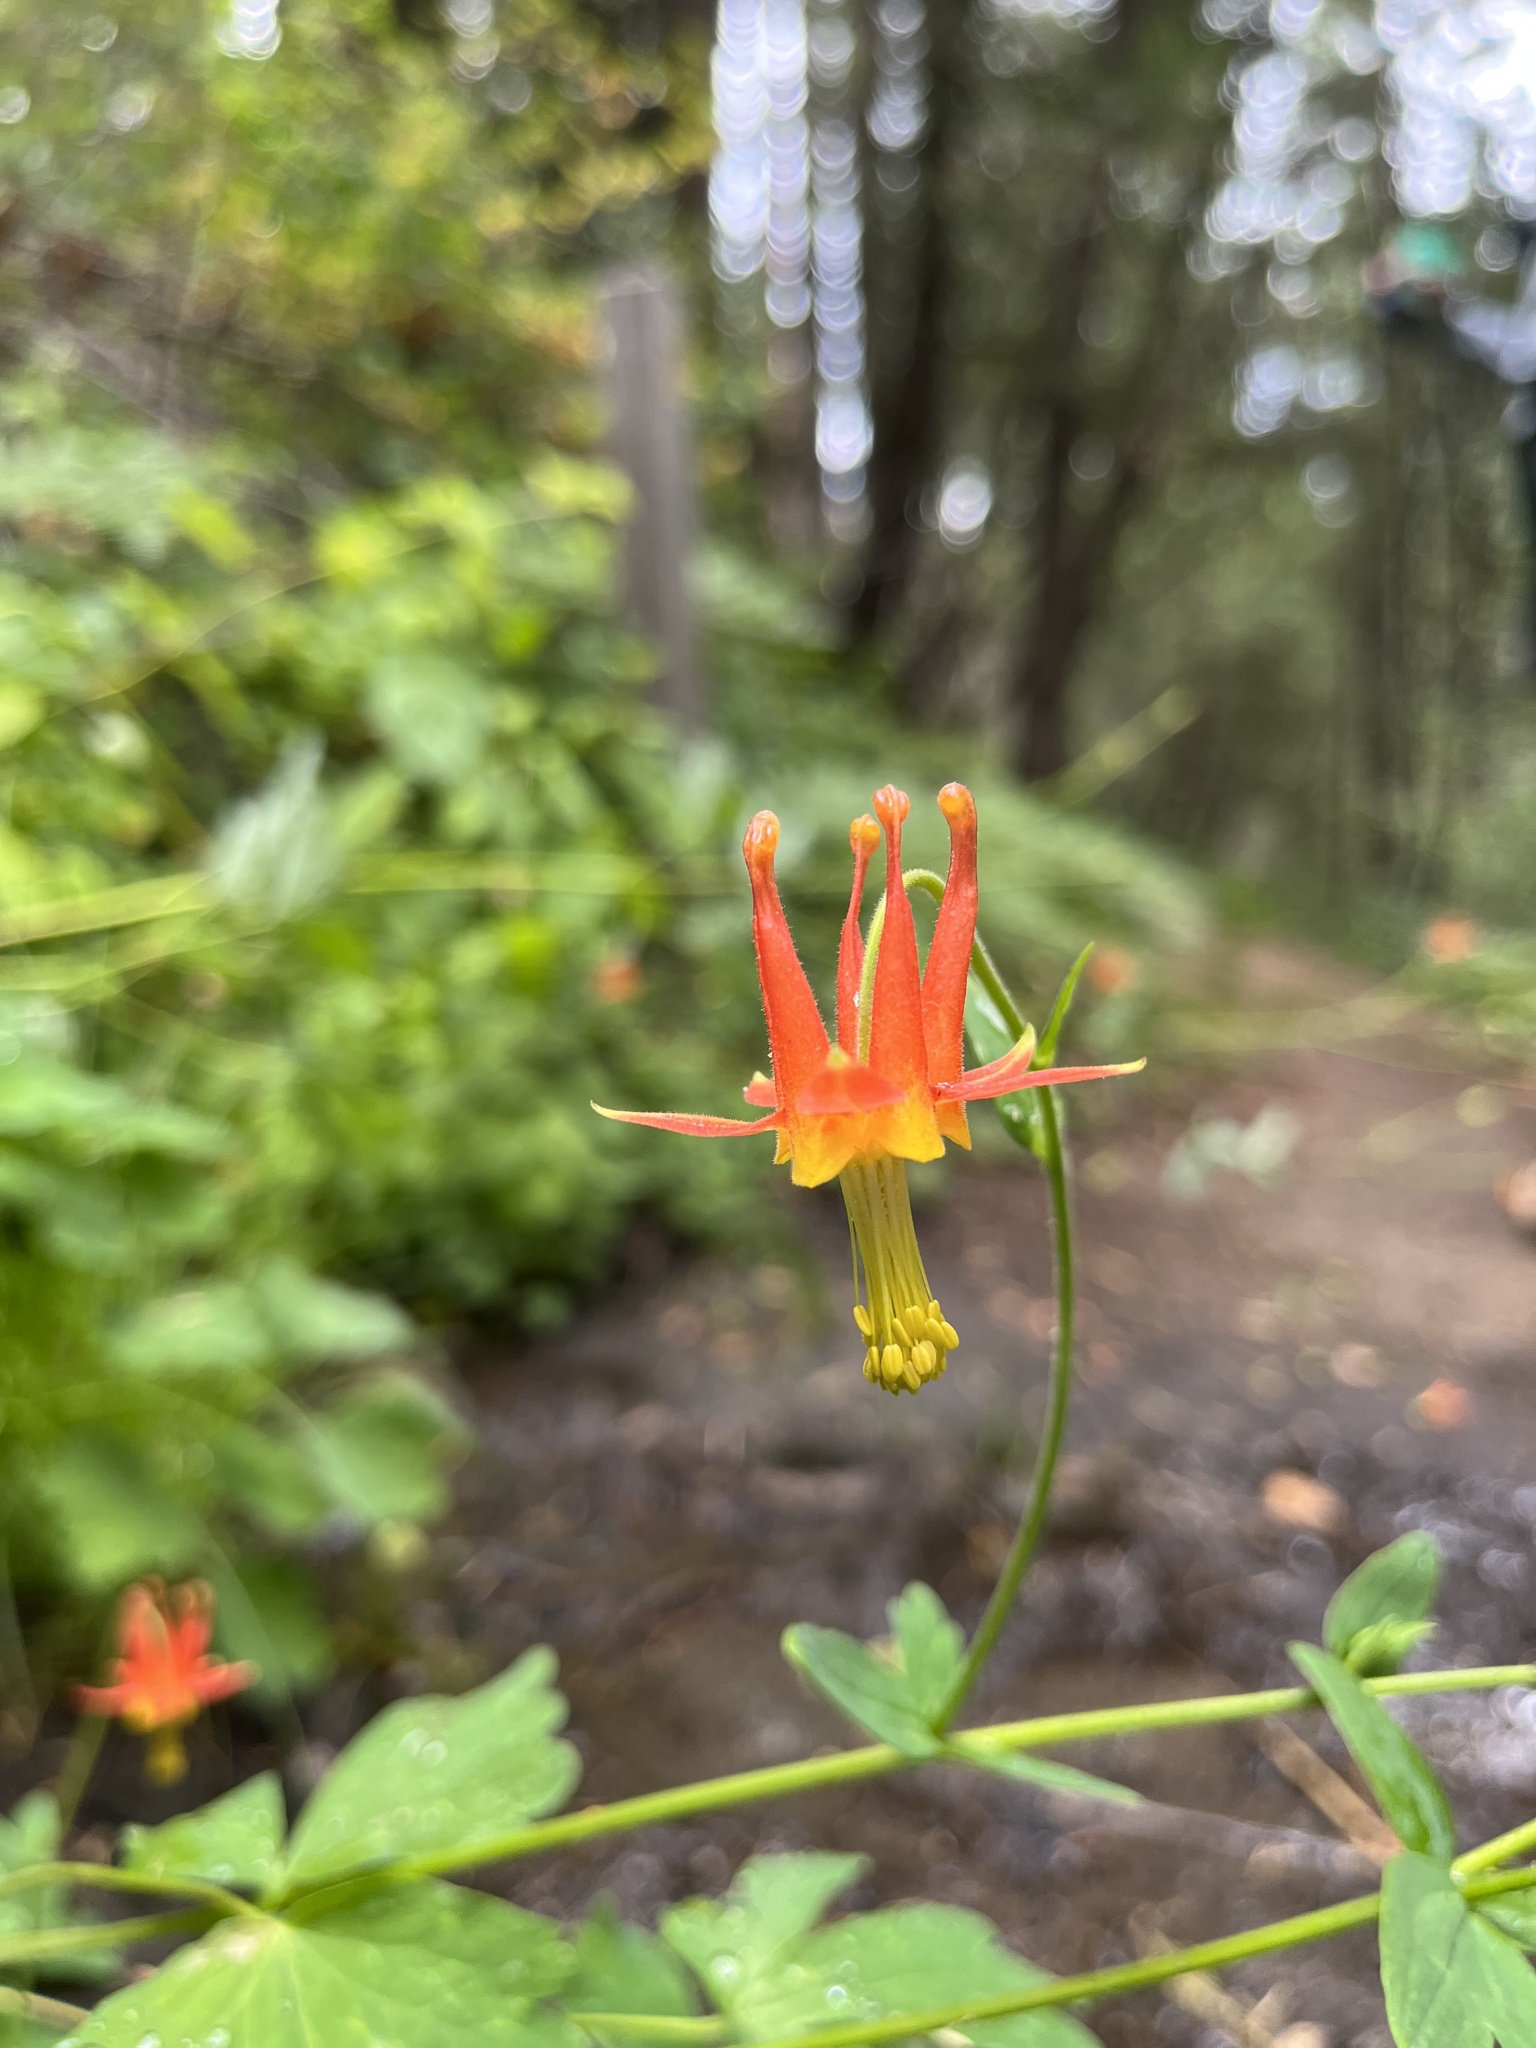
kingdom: Plantae
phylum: Tracheophyta
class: Magnoliopsida
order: Ranunculales
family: Ranunculaceae
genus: Aquilegia
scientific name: Aquilegia formosa
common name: Sitka columbine
